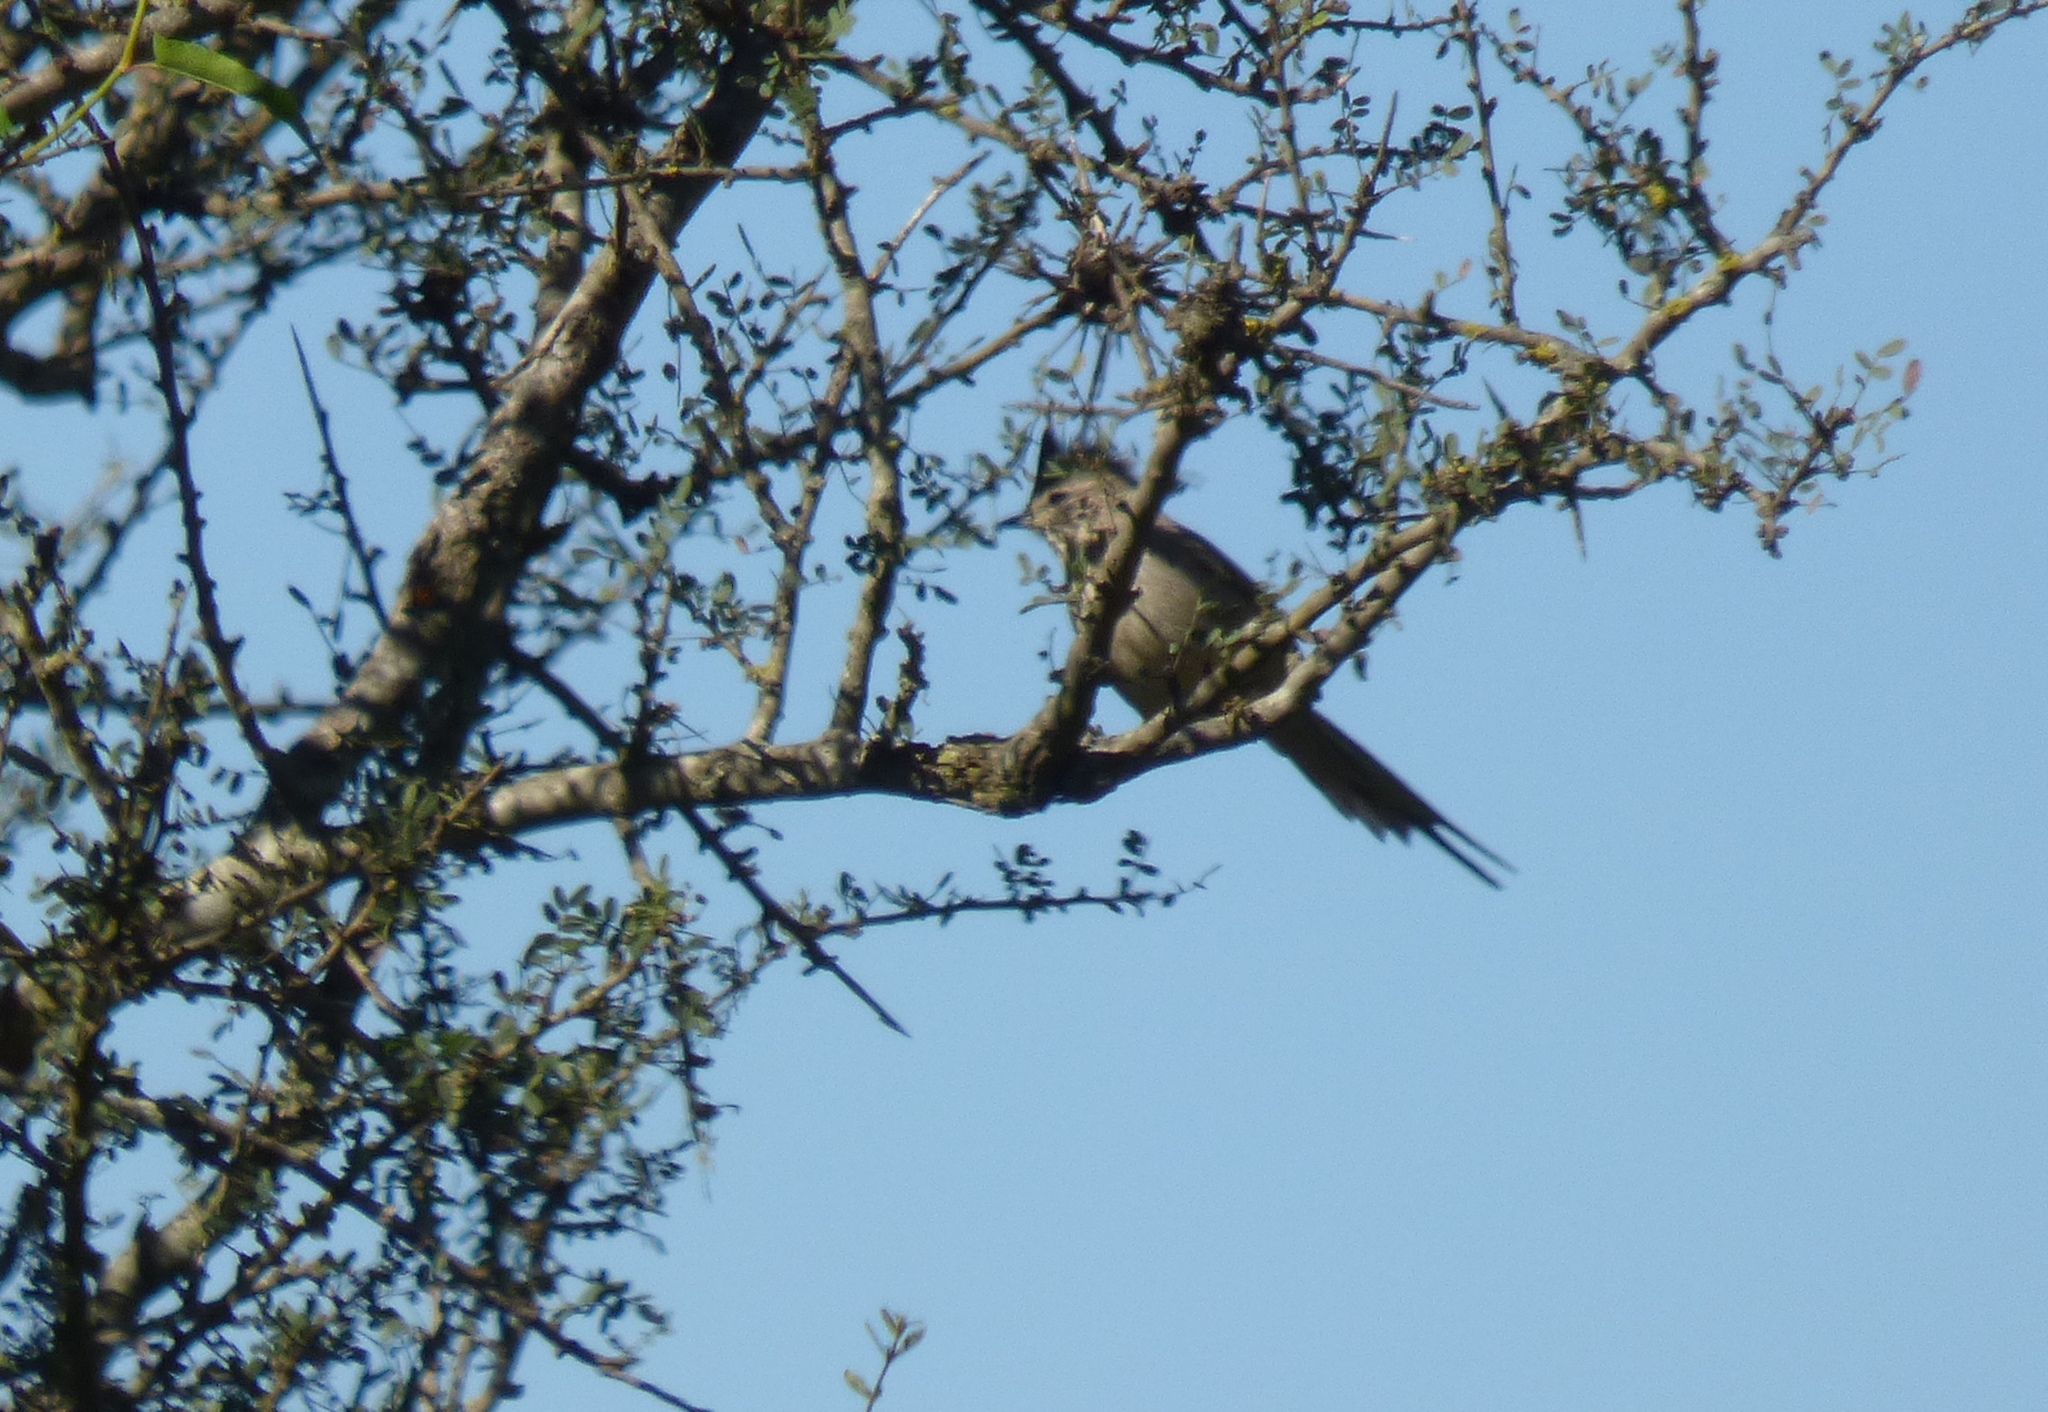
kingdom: Animalia
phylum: Chordata
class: Aves
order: Passeriformes
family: Furnariidae
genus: Leptasthenura
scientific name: Leptasthenura platensis
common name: Tufted tit-spinetail
